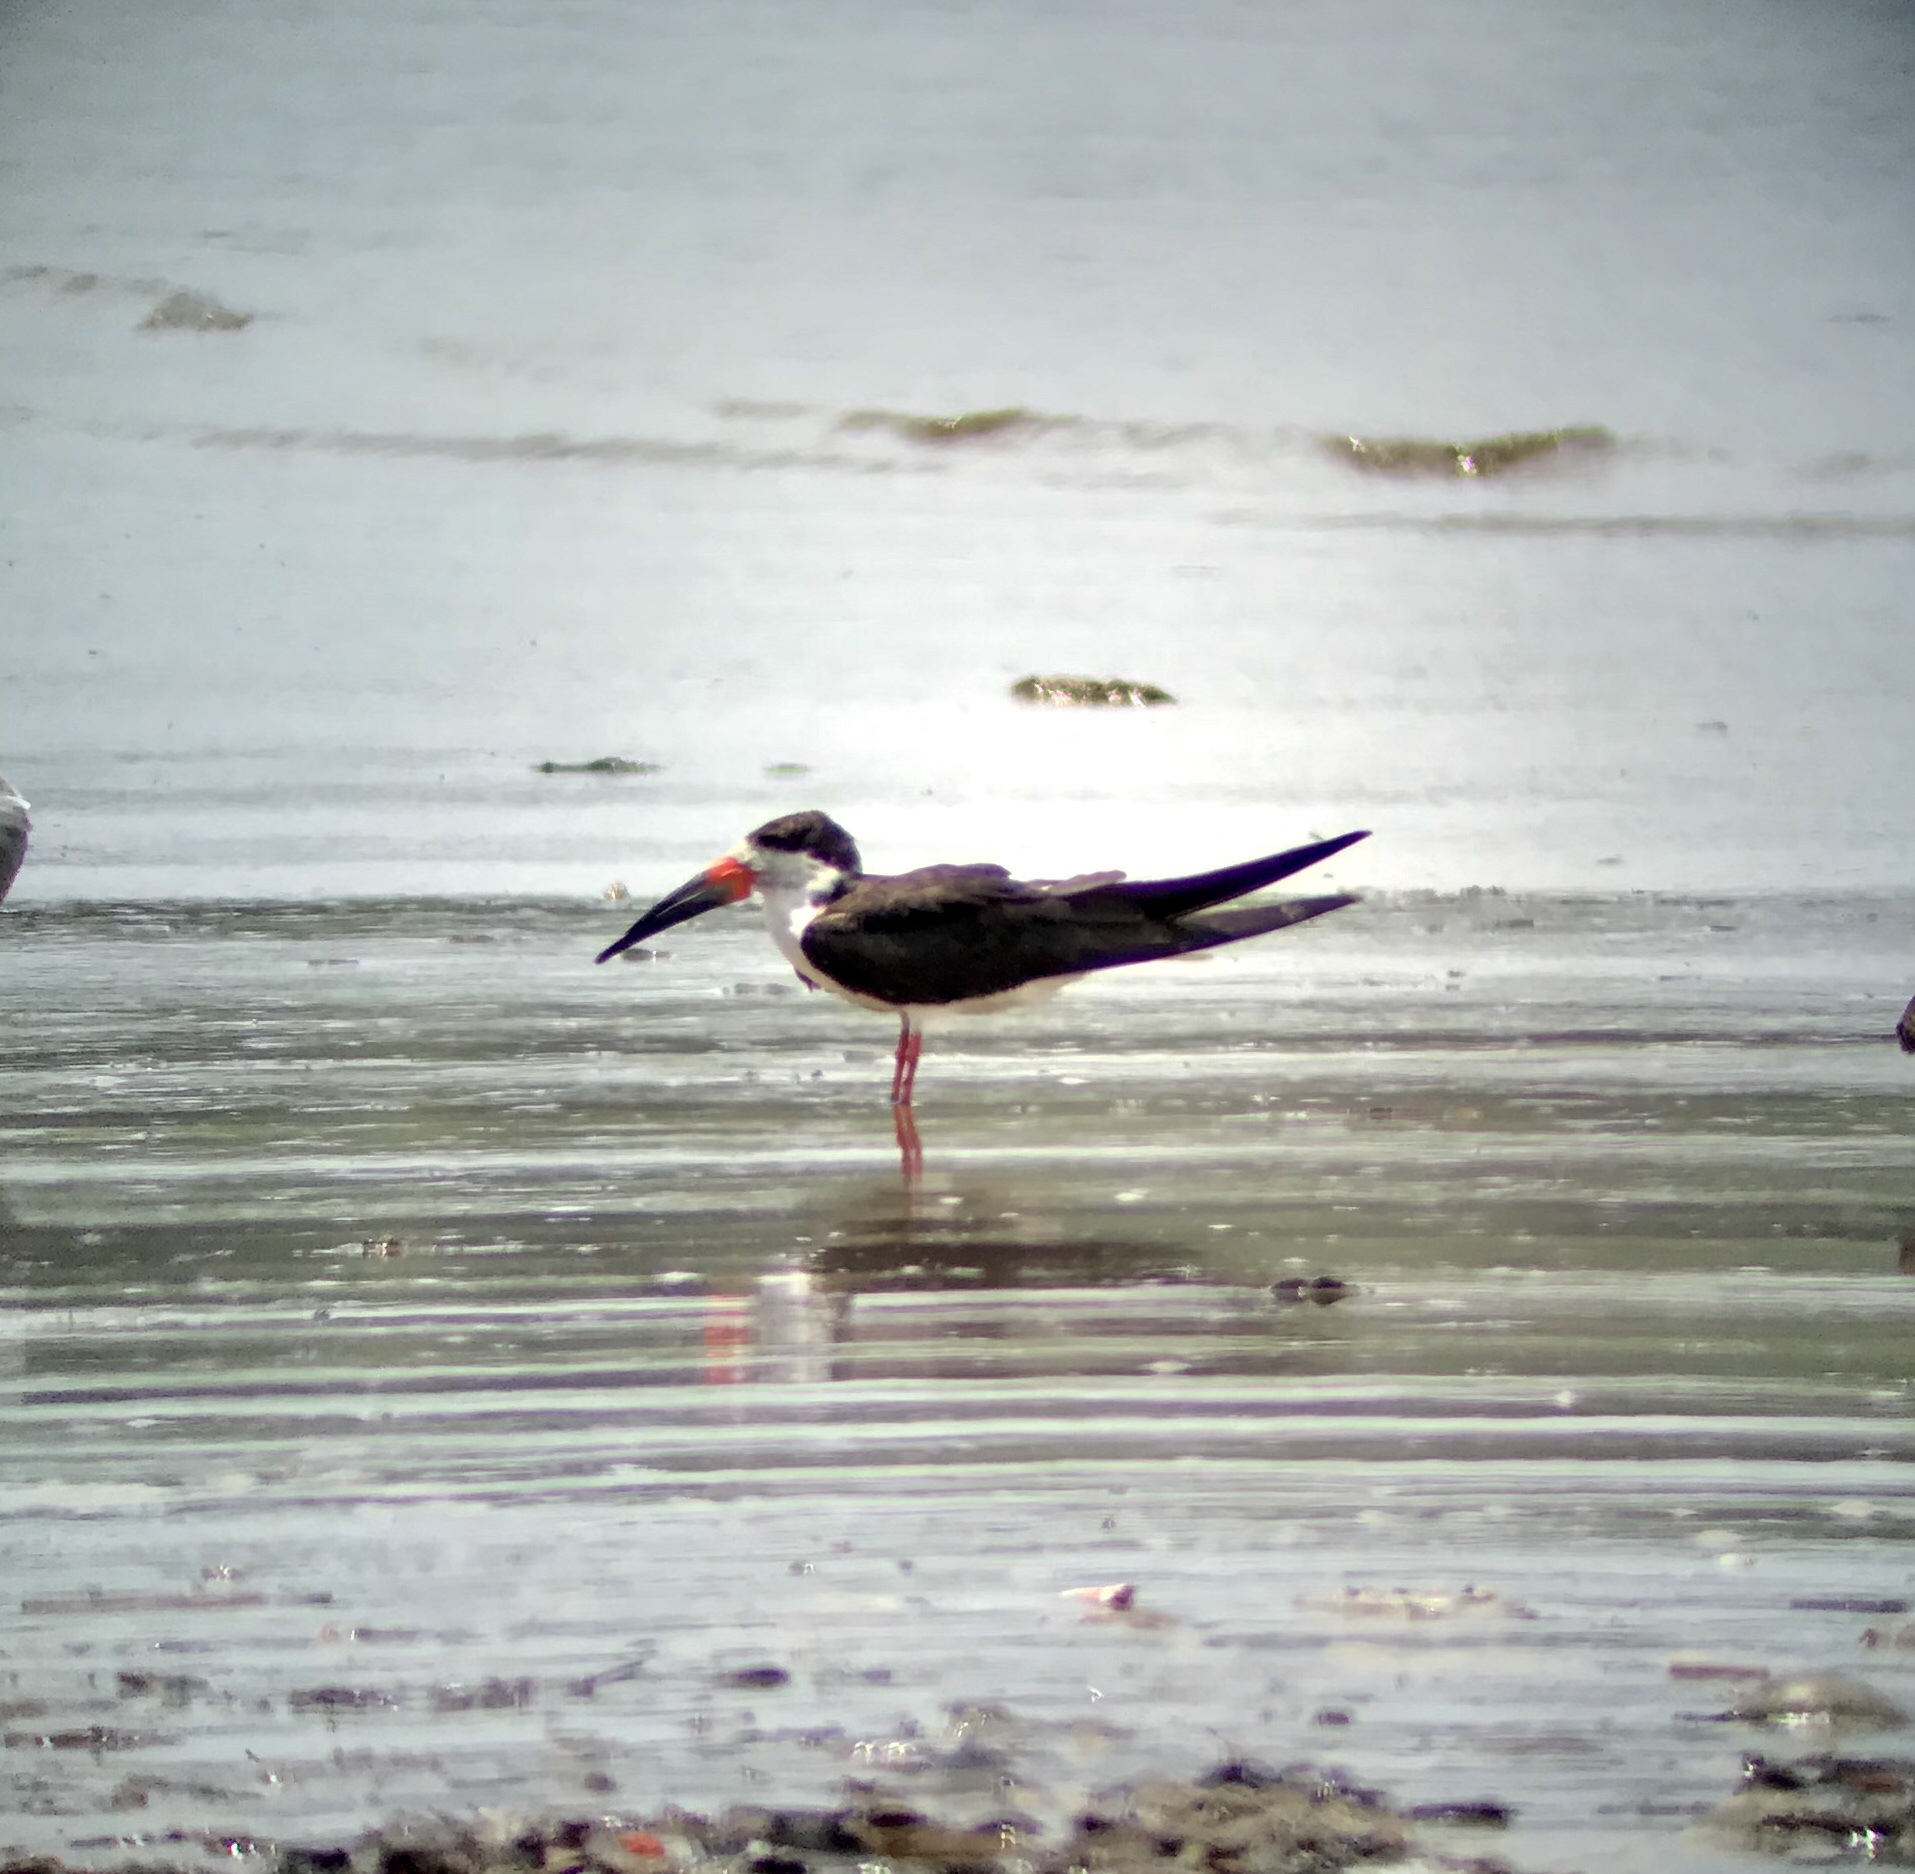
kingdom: Animalia
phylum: Chordata
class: Aves
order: Charadriiformes
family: Laridae
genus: Rynchops
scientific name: Rynchops niger
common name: Black skimmer
